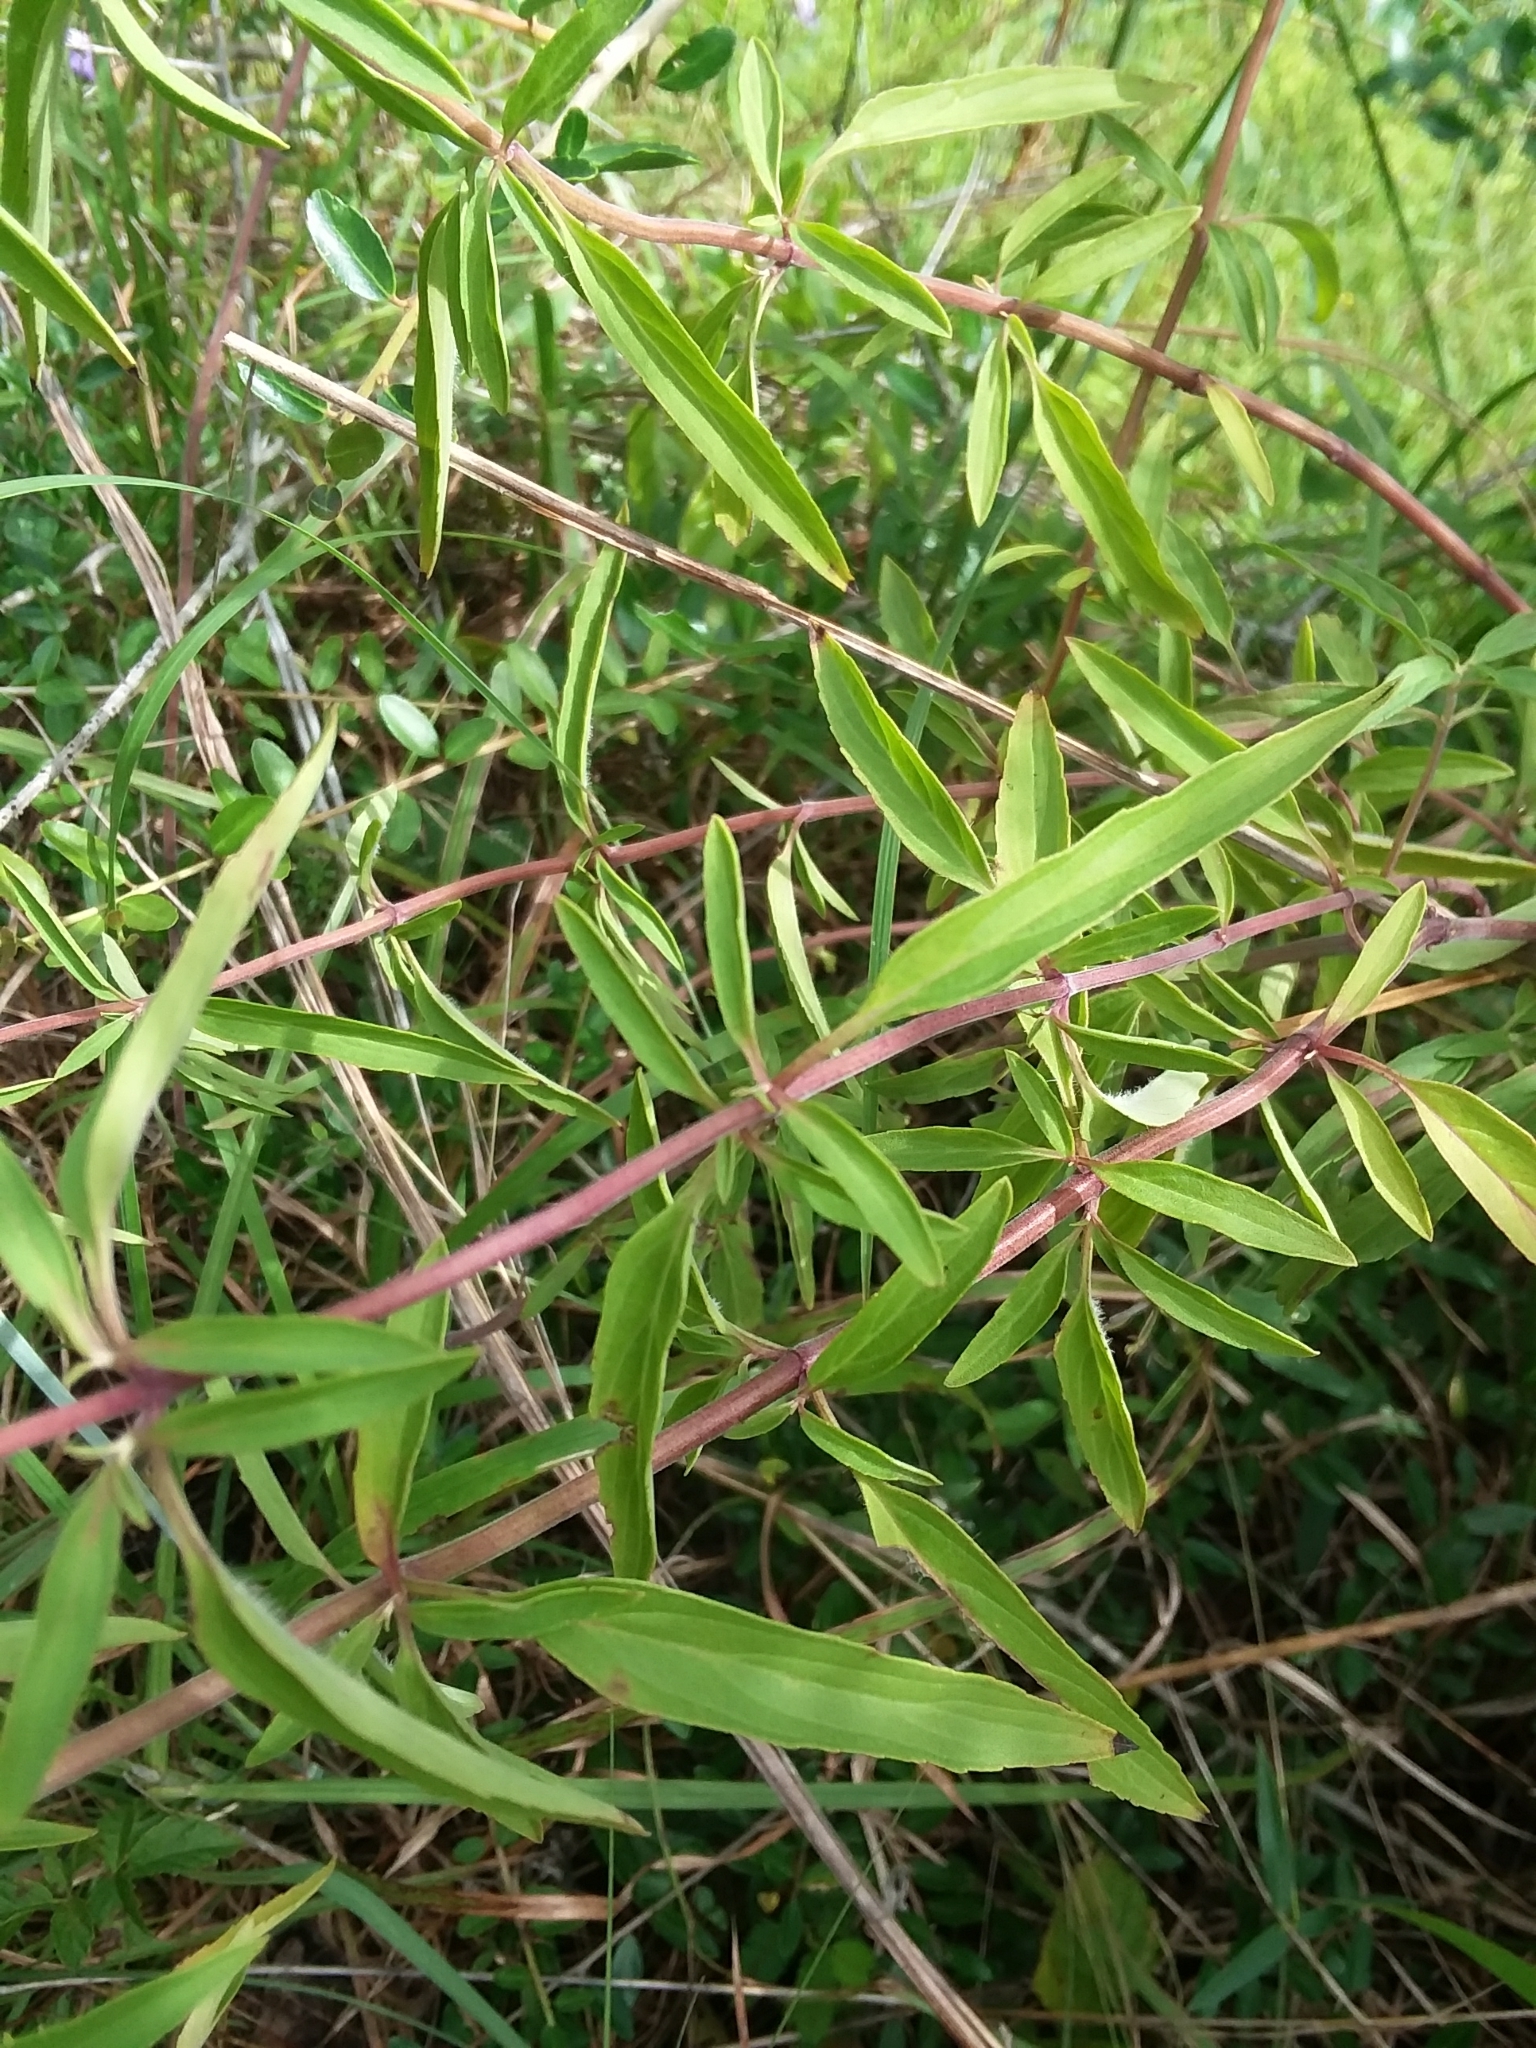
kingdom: Plantae
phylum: Tracheophyta
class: Magnoliopsida
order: Lamiales
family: Lamiaceae
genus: Monarda
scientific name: Monarda punctata
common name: Dotted monarda
